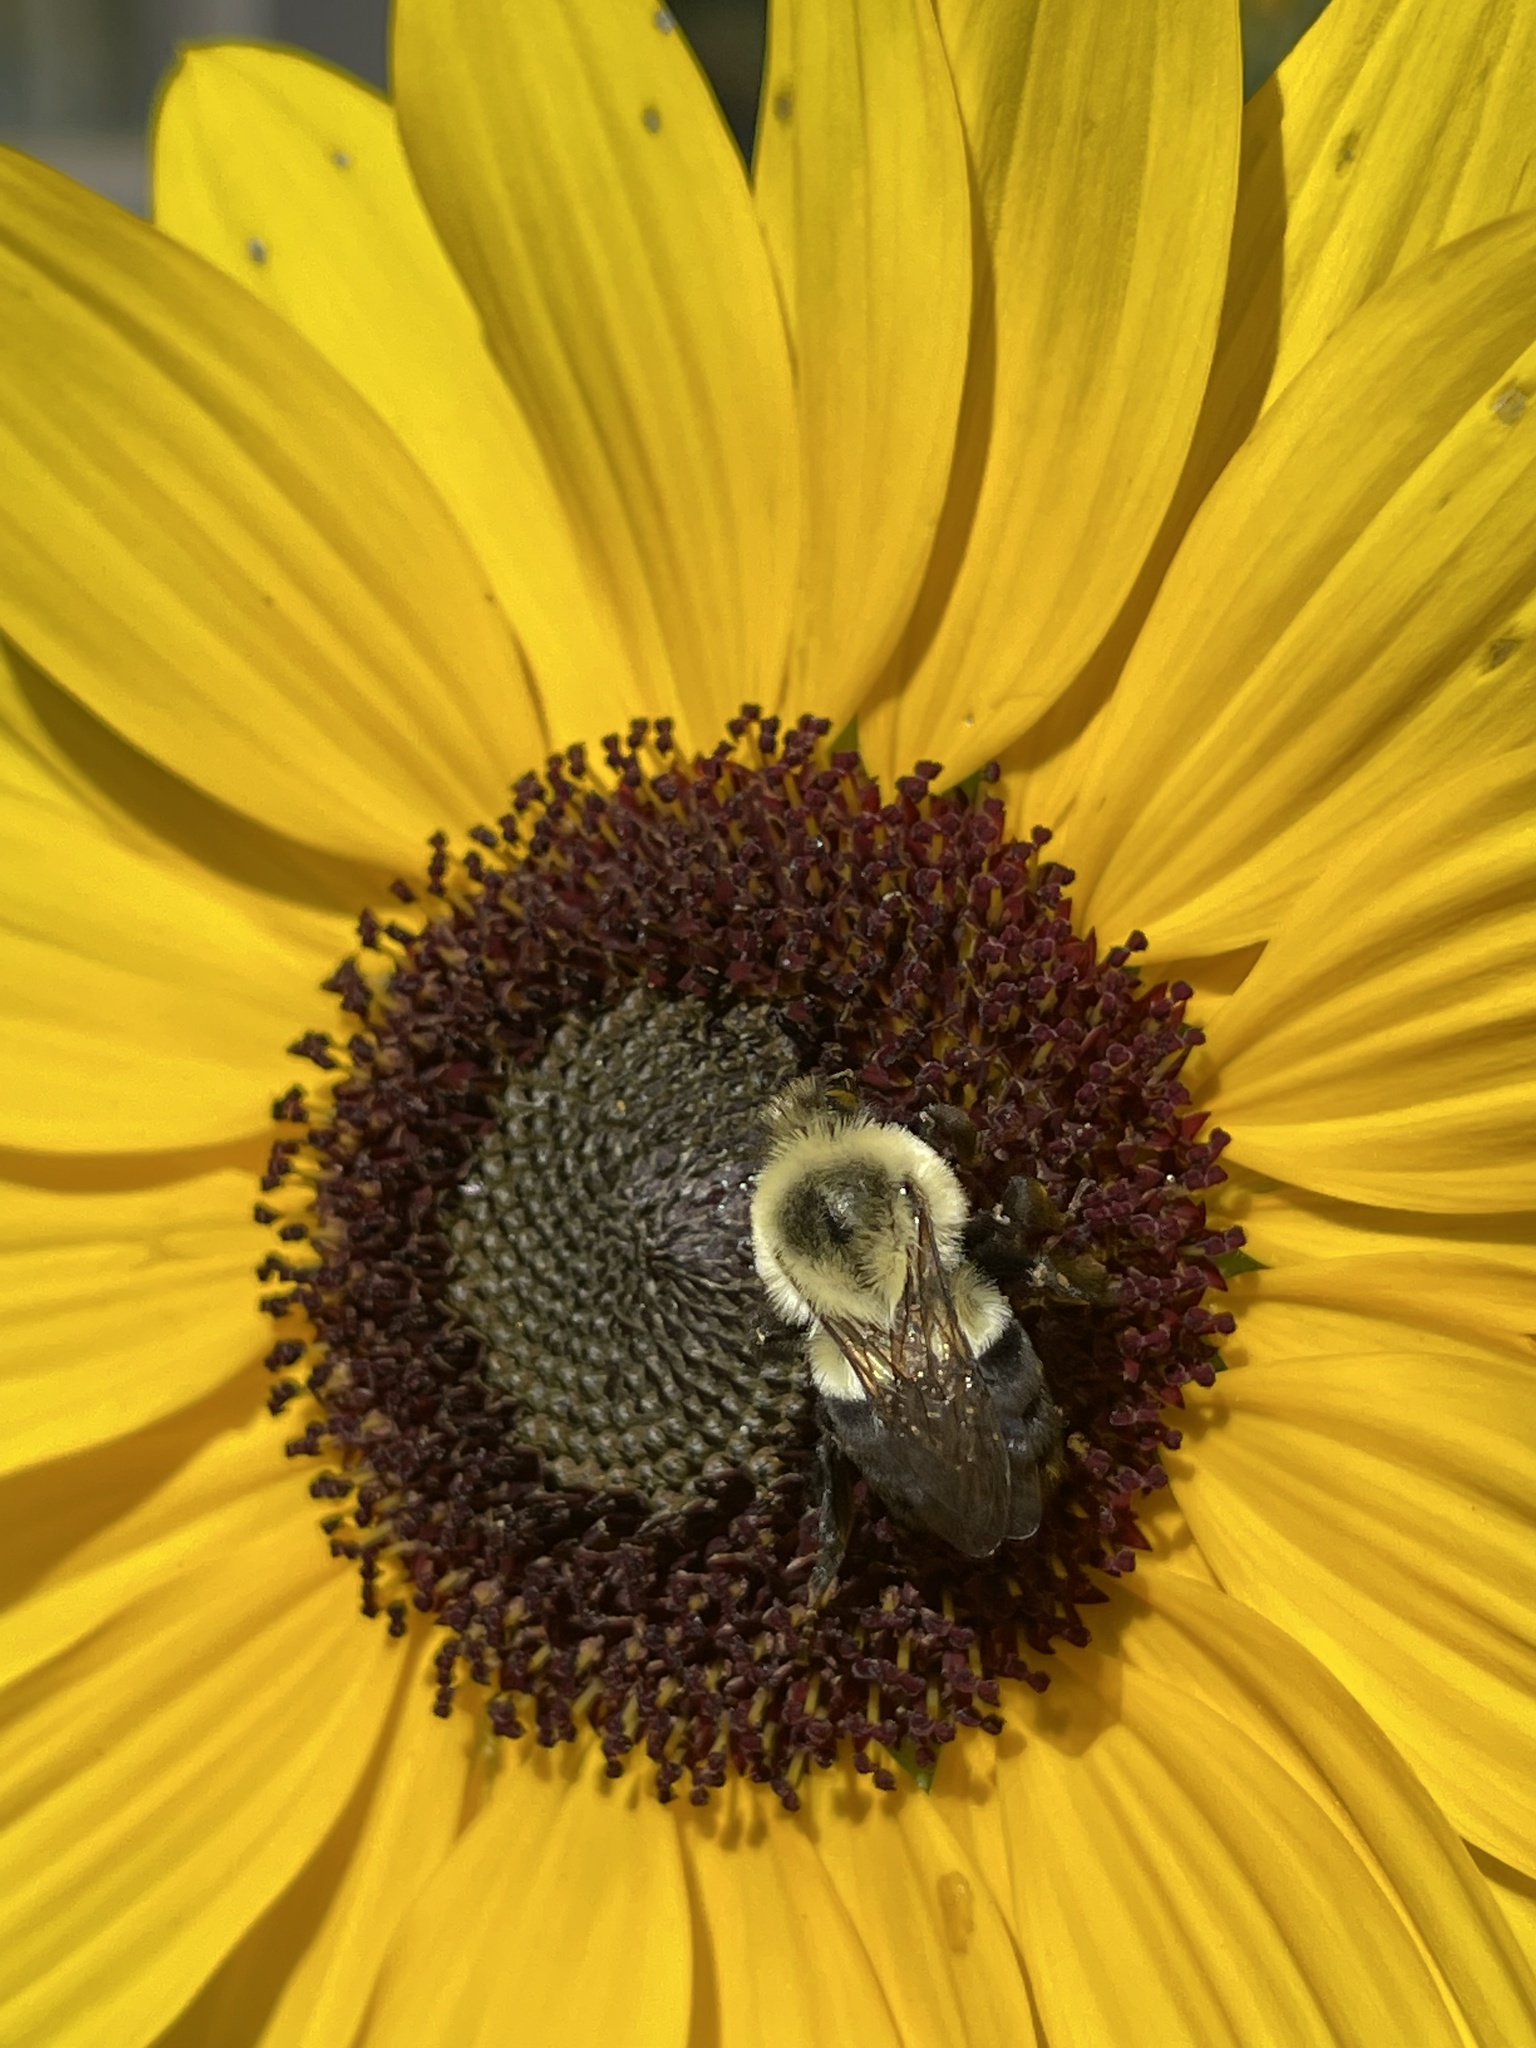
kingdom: Animalia
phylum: Arthropoda
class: Insecta
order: Hymenoptera
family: Apidae
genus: Bombus
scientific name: Bombus impatiens
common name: Common eastern bumble bee
